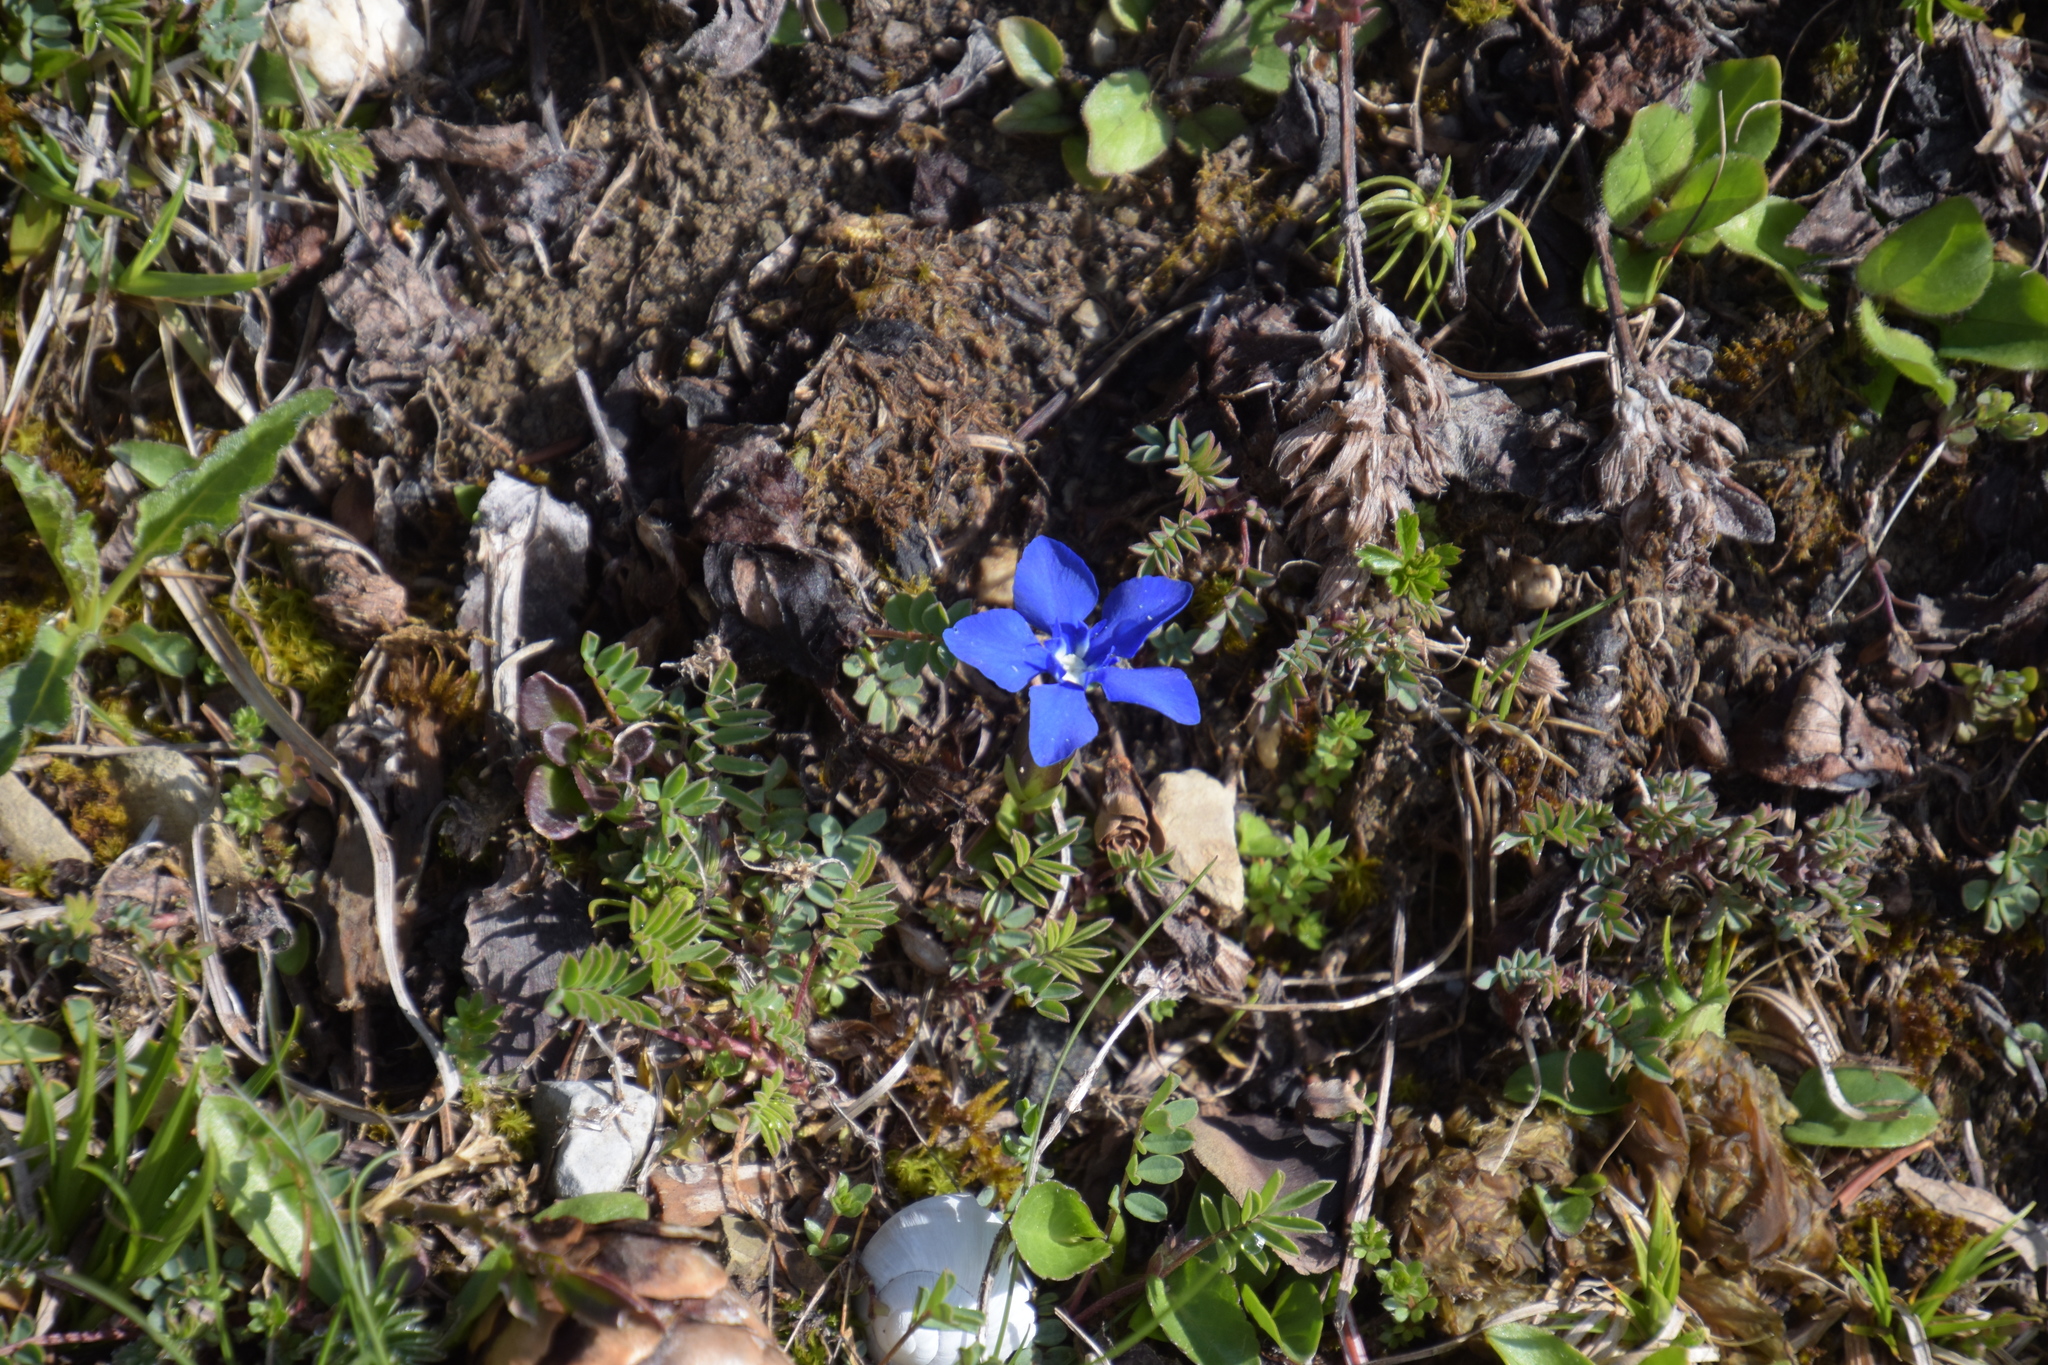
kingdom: Plantae
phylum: Tracheophyta
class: Magnoliopsida
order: Gentianales
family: Gentianaceae
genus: Gentiana
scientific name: Gentiana verna
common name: Spring gentian
